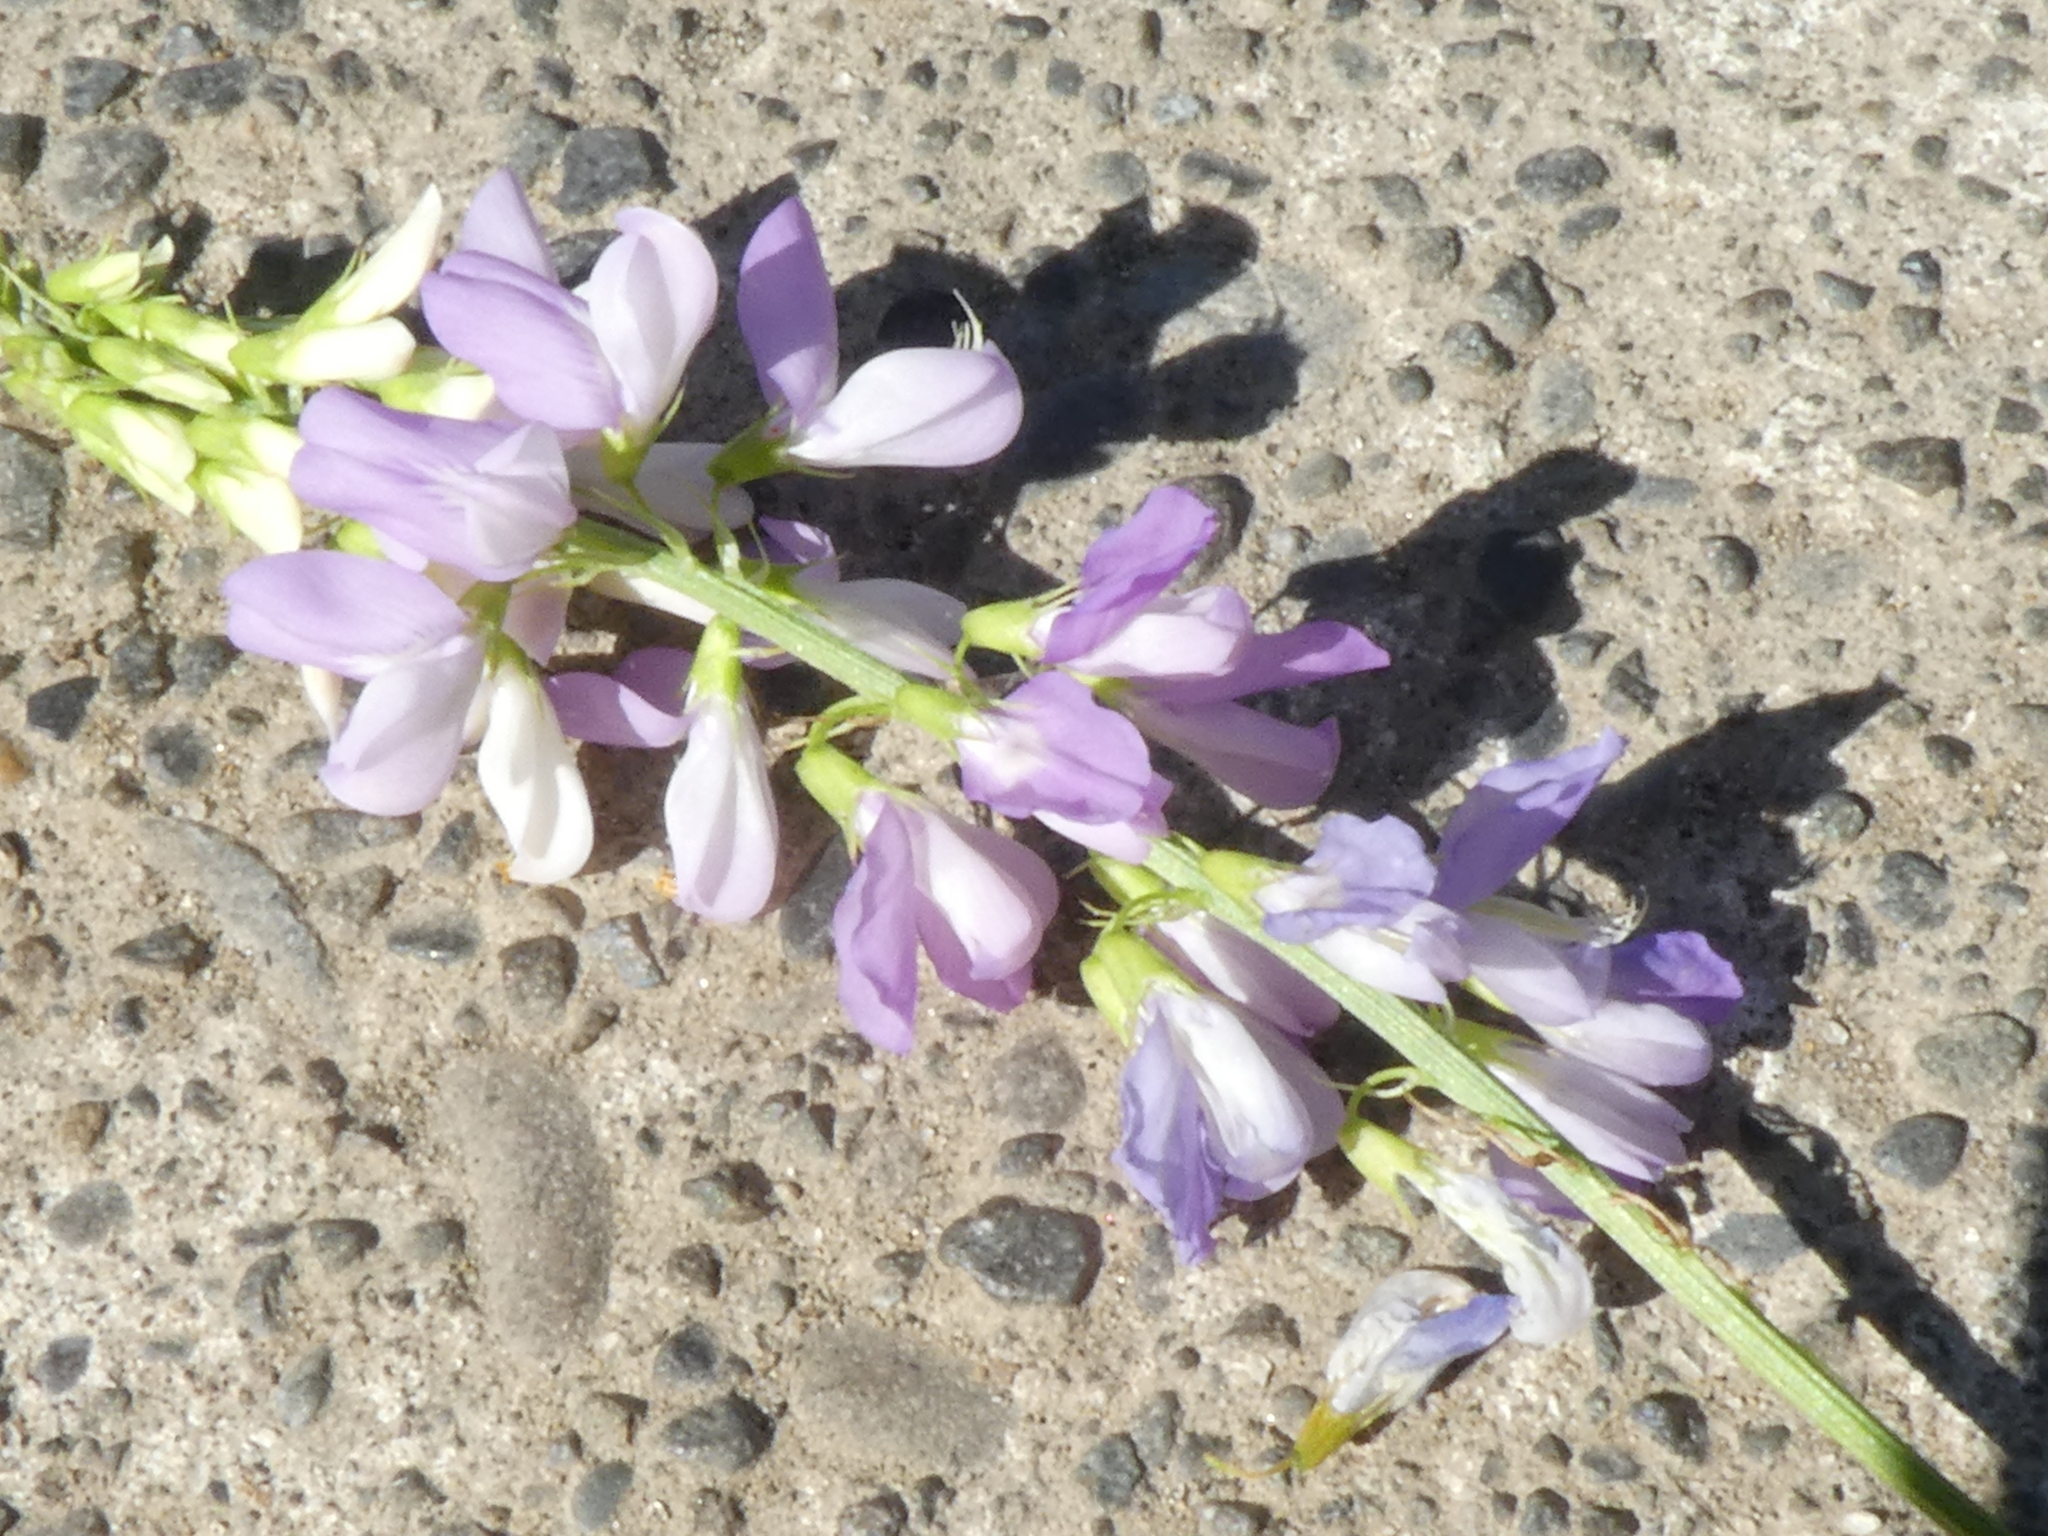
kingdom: Plantae
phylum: Tracheophyta
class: Magnoliopsida
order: Fabales
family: Fabaceae
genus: Galega
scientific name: Galega officinalis
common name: Goat's-rue
